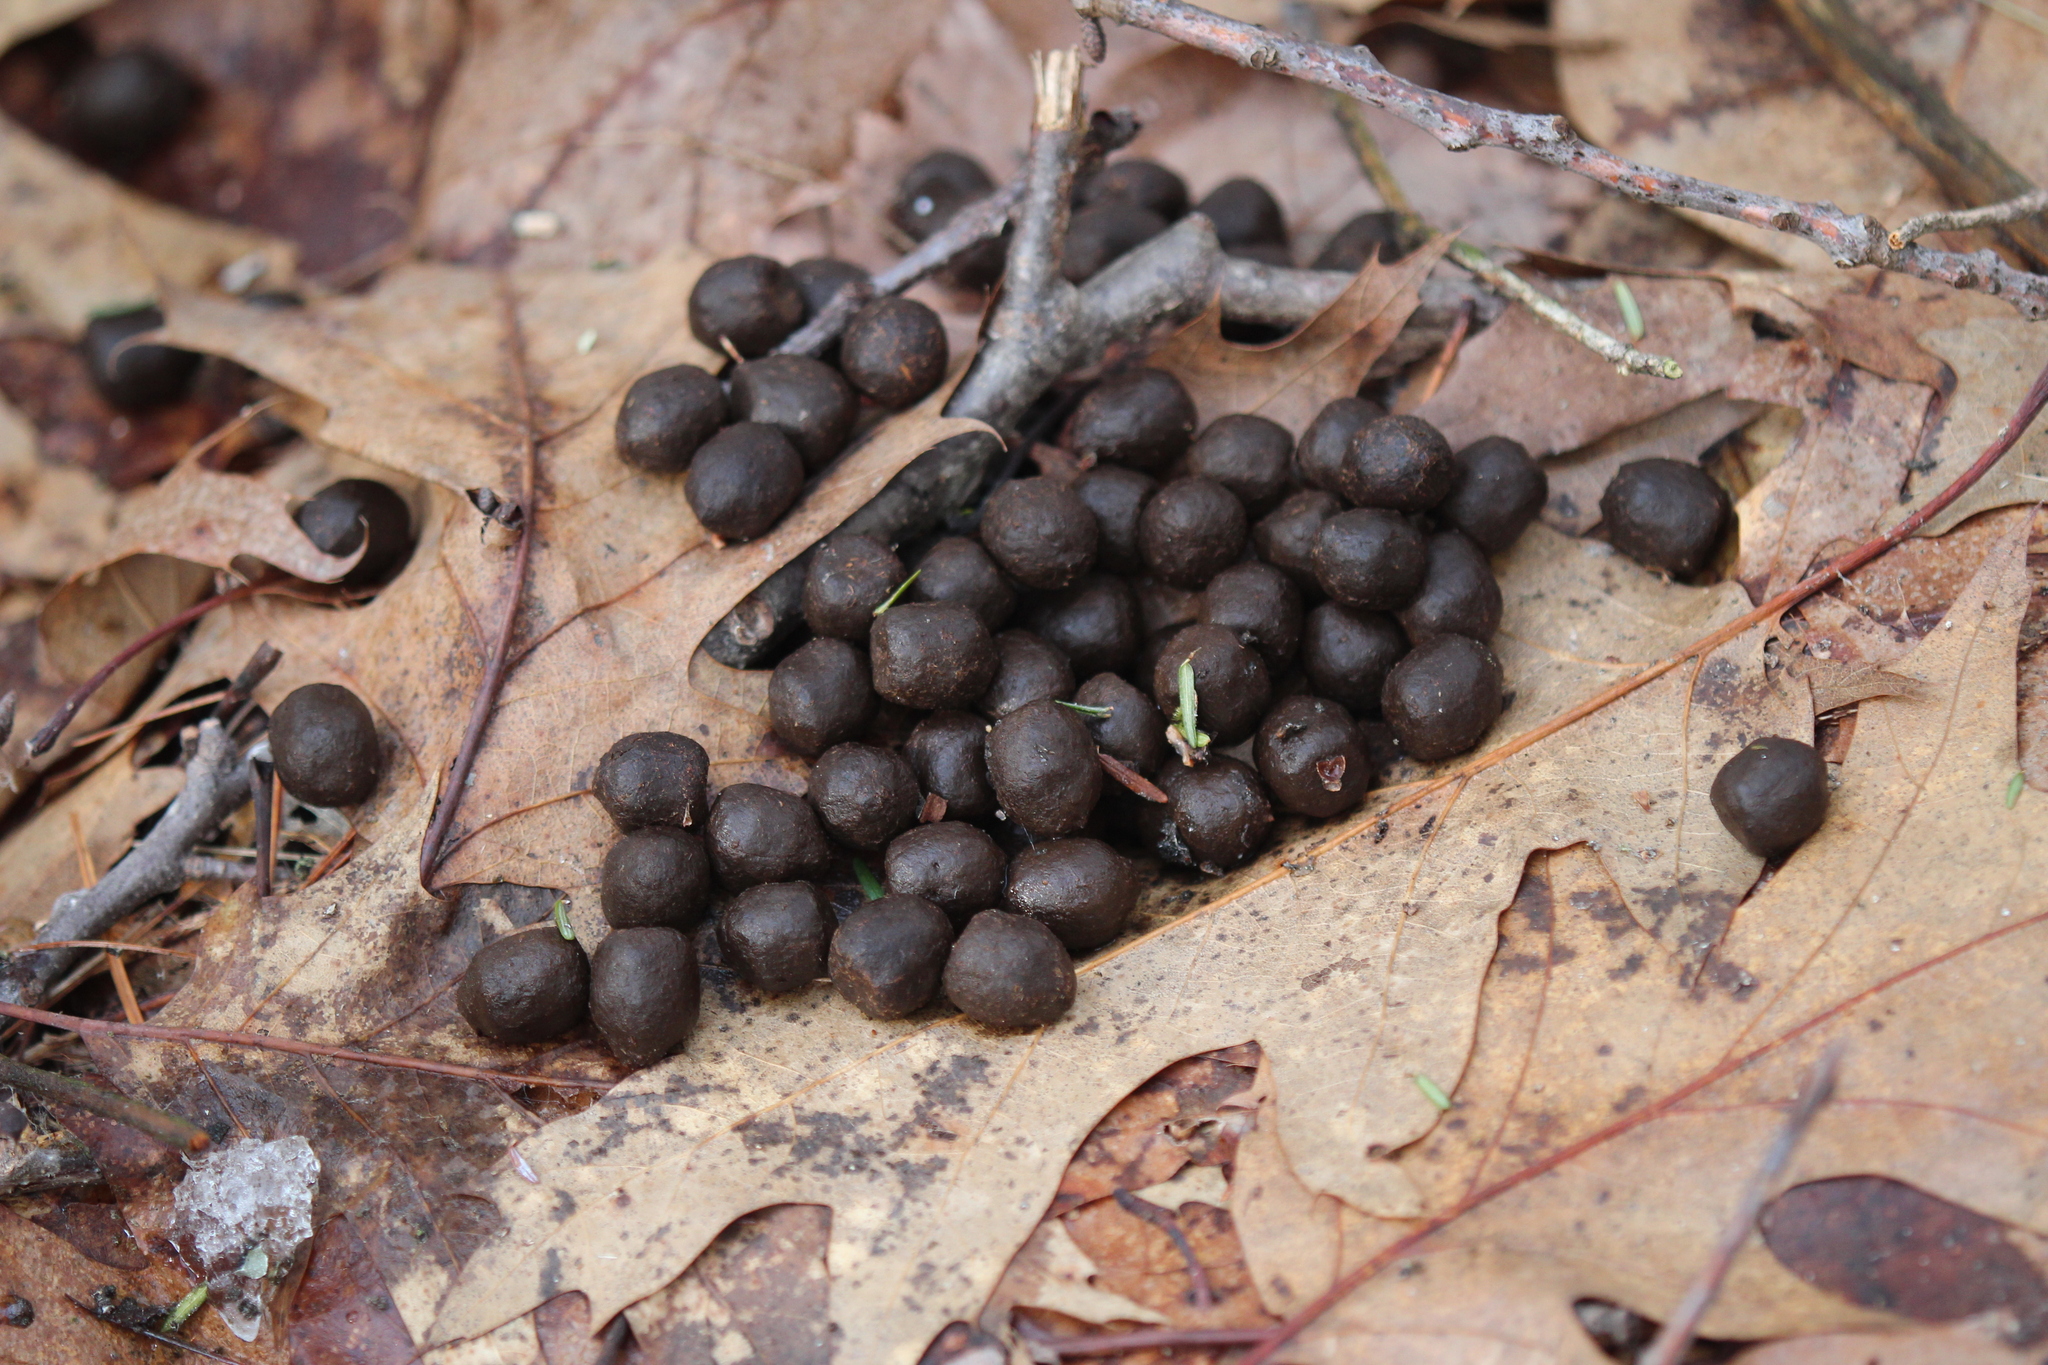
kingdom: Animalia
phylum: Chordata
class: Mammalia
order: Artiodactyla
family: Cervidae
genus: Odocoileus
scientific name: Odocoileus virginianus
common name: White-tailed deer
